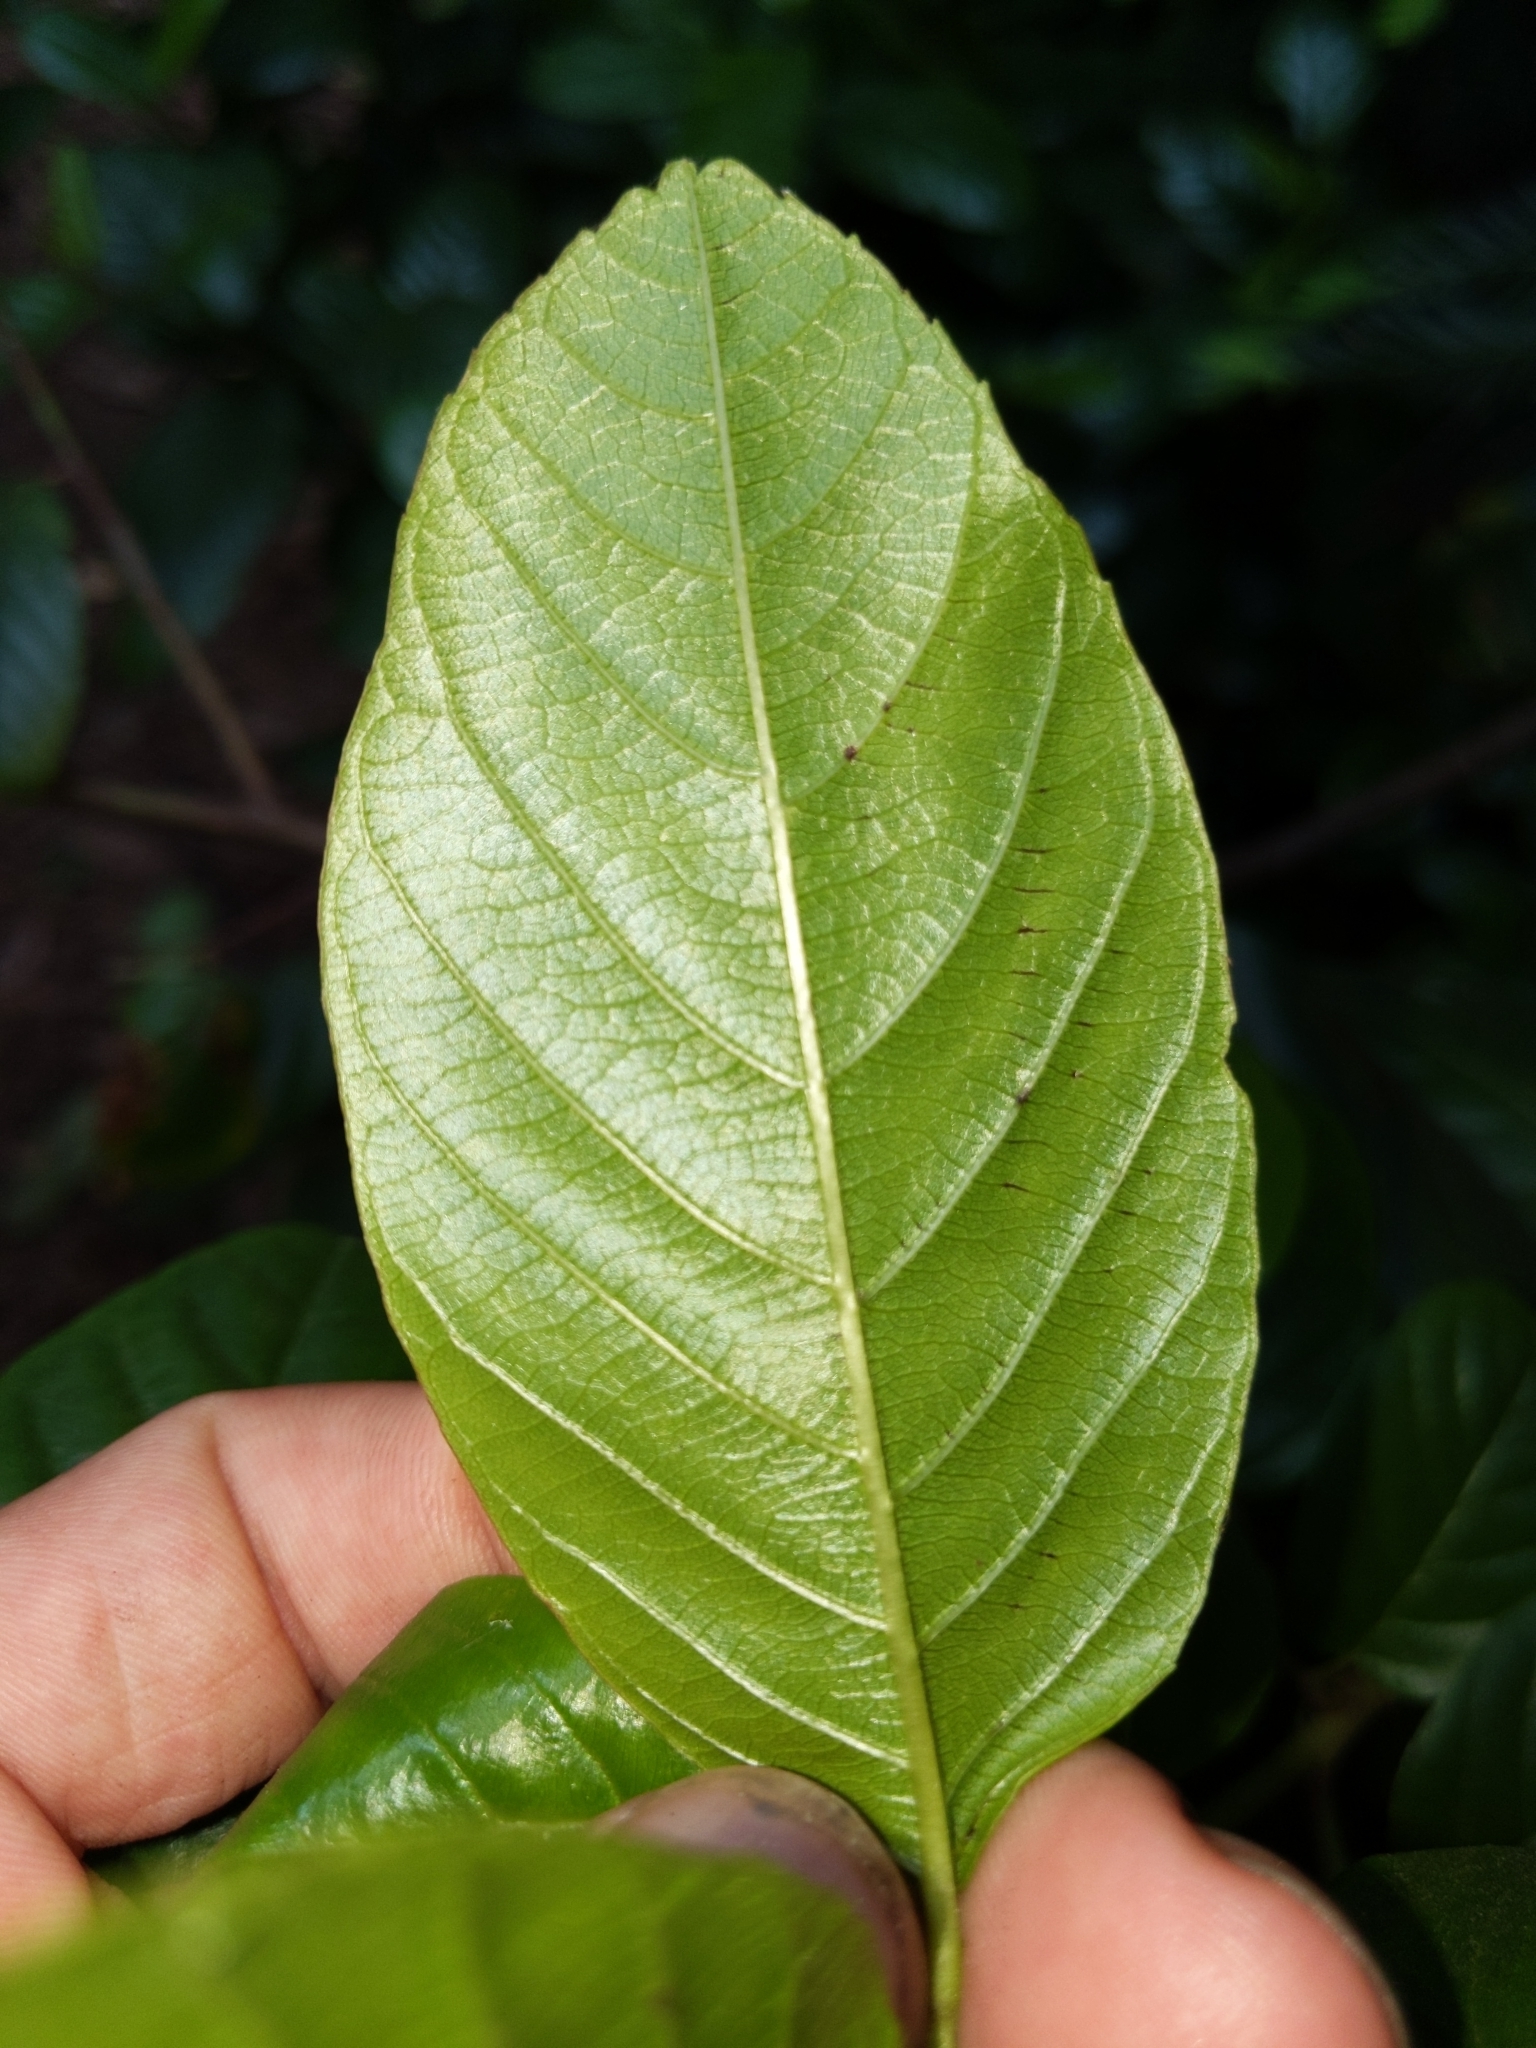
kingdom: Plantae
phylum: Tracheophyta
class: Magnoliopsida
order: Rosales
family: Rhamnaceae
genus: Frangula
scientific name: Frangula purshiana
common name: Cascara buckthorn
